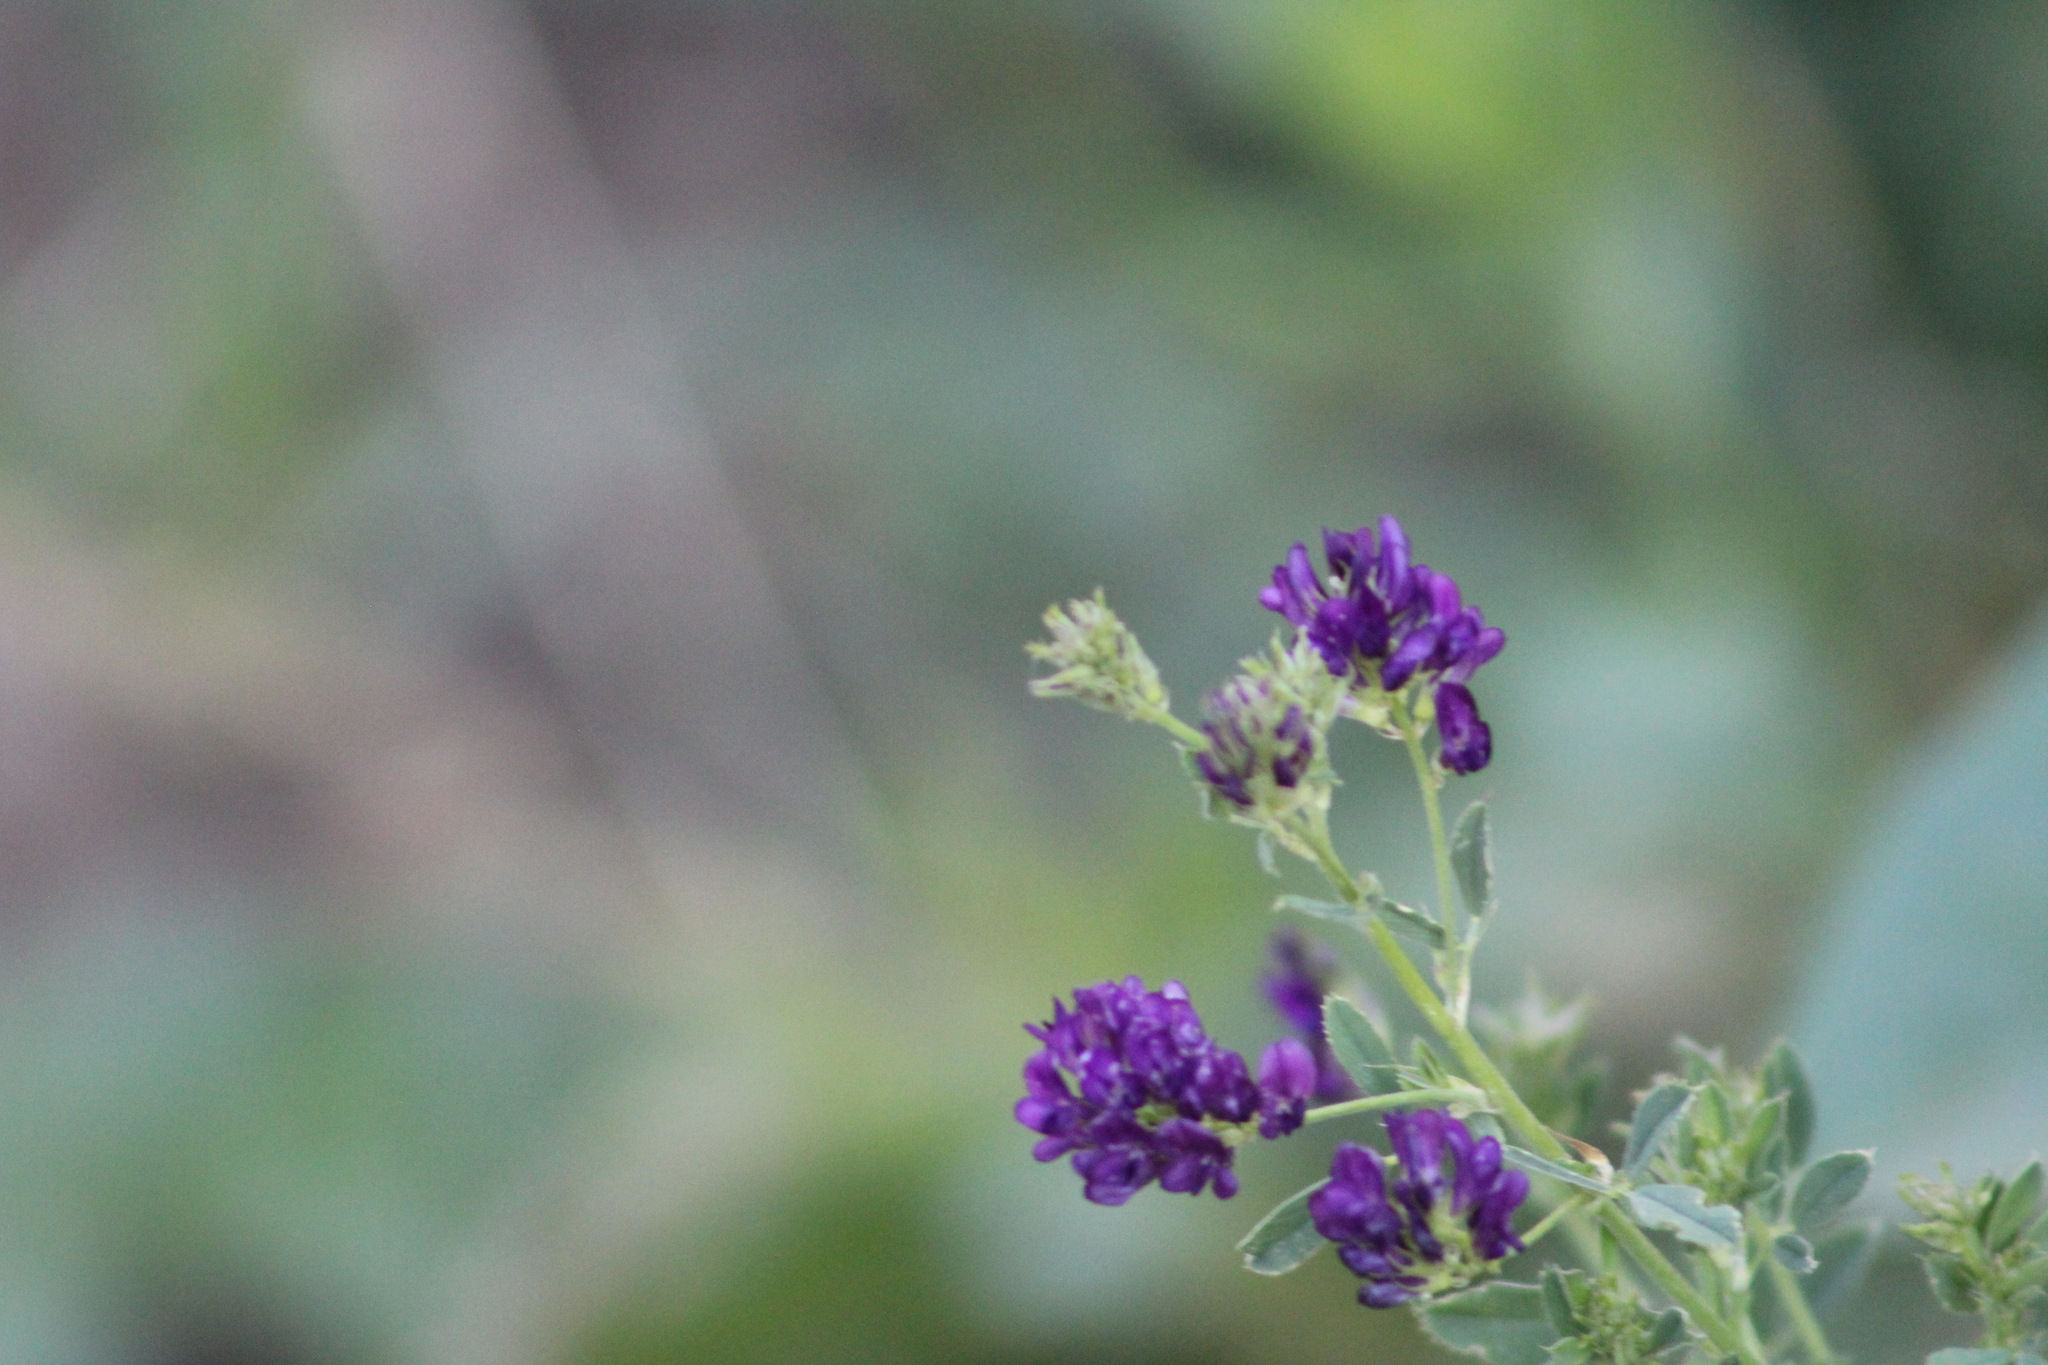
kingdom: Plantae
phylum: Tracheophyta
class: Magnoliopsida
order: Fabales
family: Fabaceae
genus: Medicago
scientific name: Medicago sativa
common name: Alfalfa
